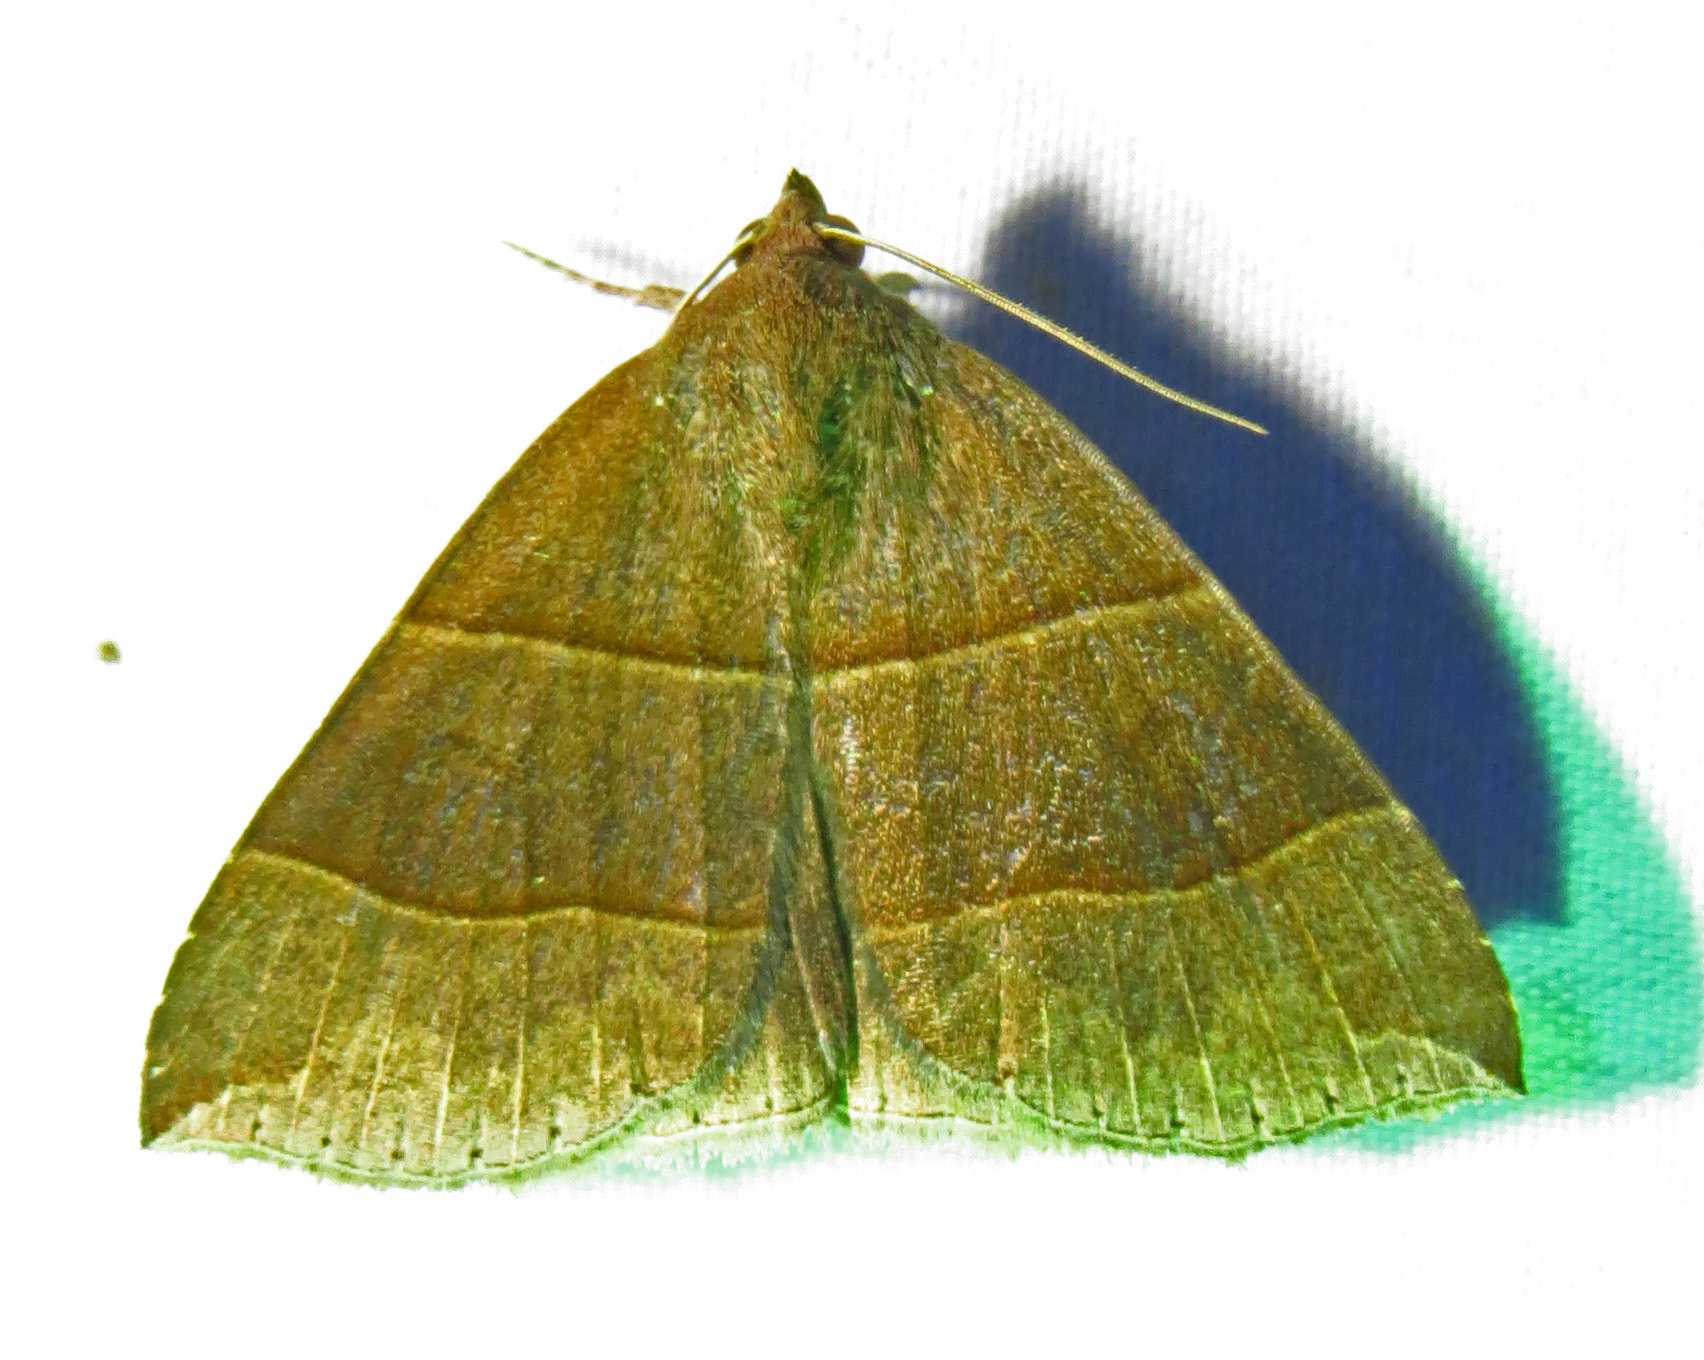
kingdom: Animalia
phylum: Arthropoda
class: Insecta
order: Lepidoptera
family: Erebidae
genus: Parallelia
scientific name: Parallelia bistriaris
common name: Maple looper moth
